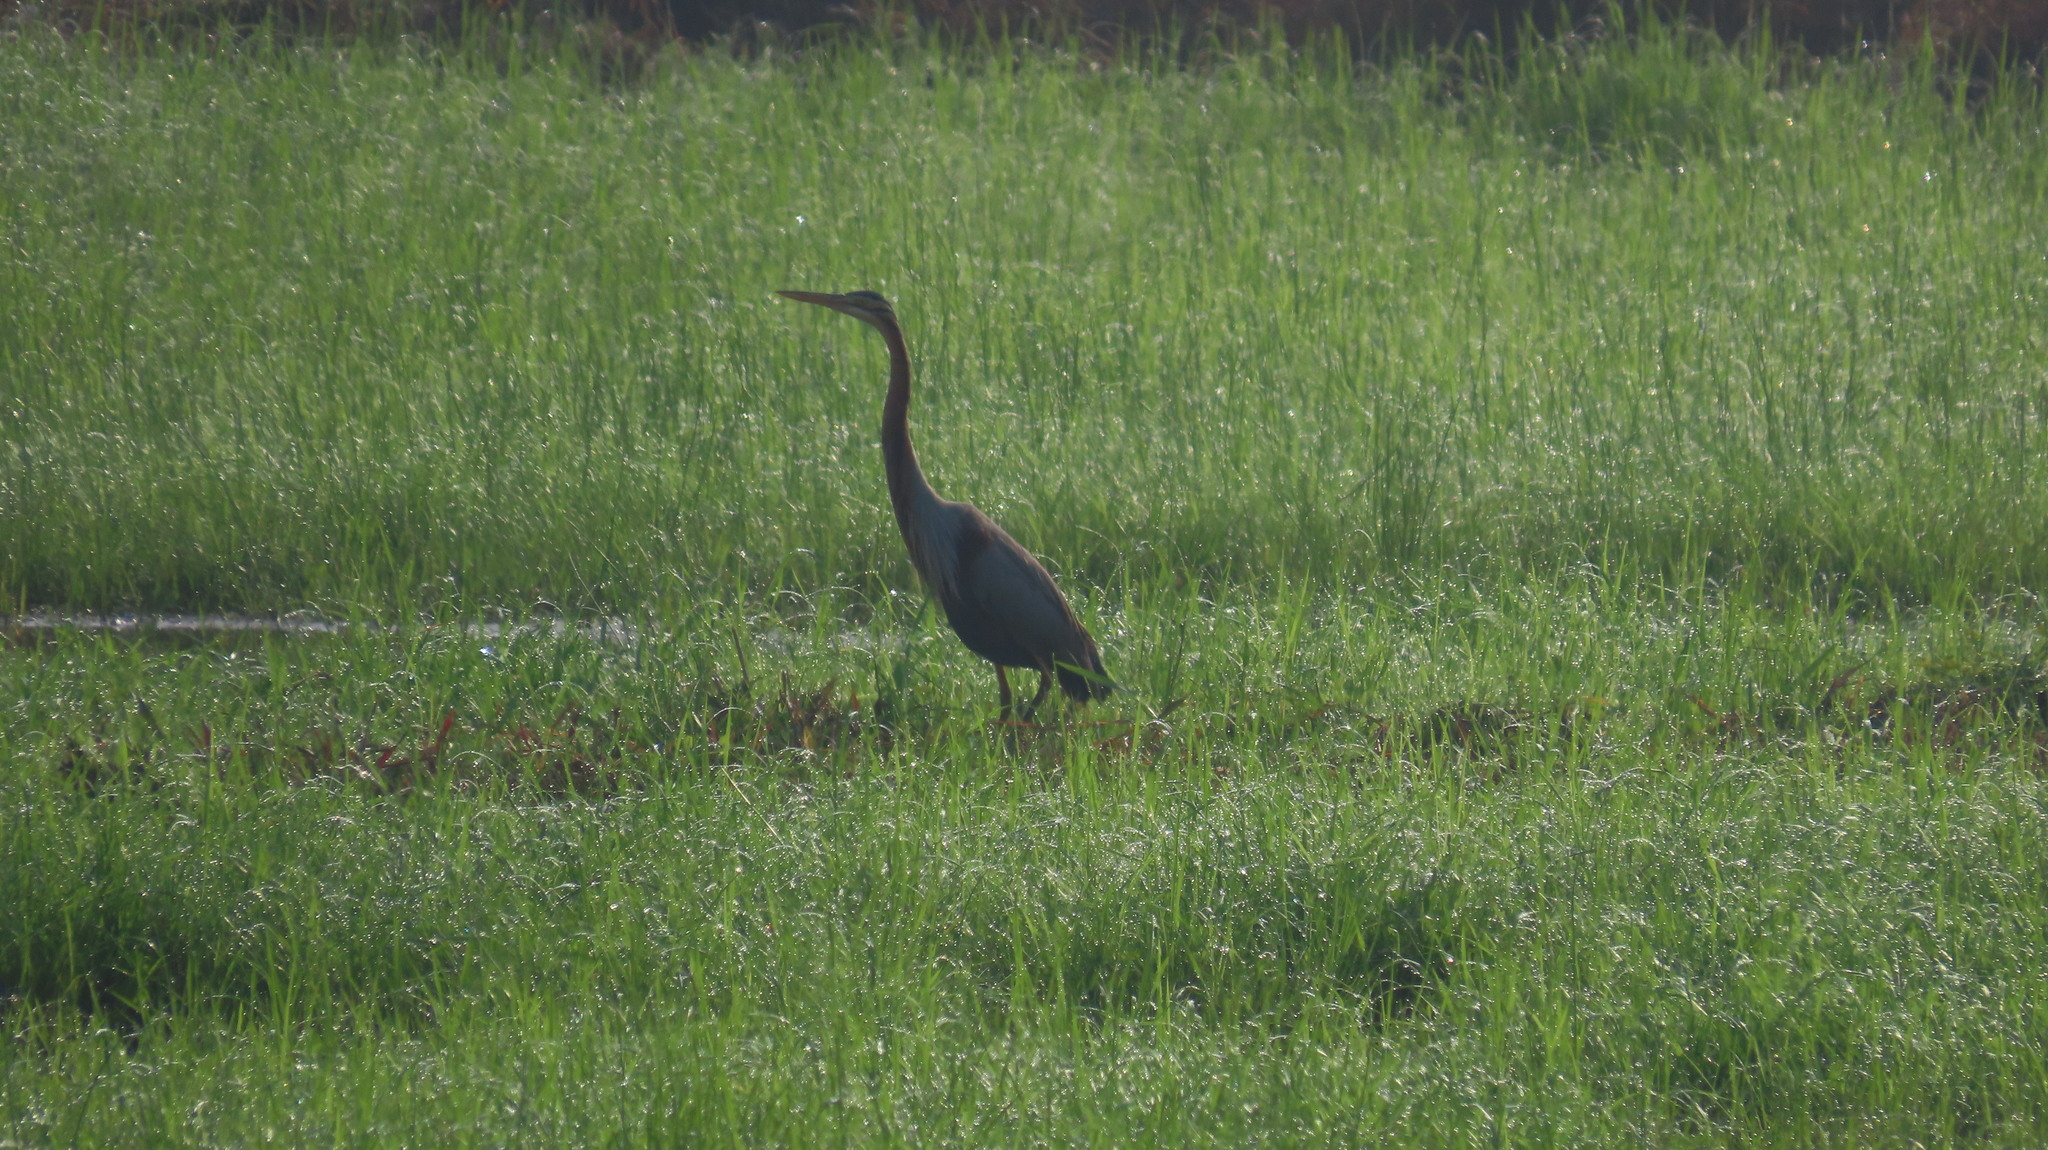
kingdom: Animalia
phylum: Chordata
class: Aves
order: Pelecaniformes
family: Ardeidae
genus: Ardea
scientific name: Ardea purpurea
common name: Purple heron
